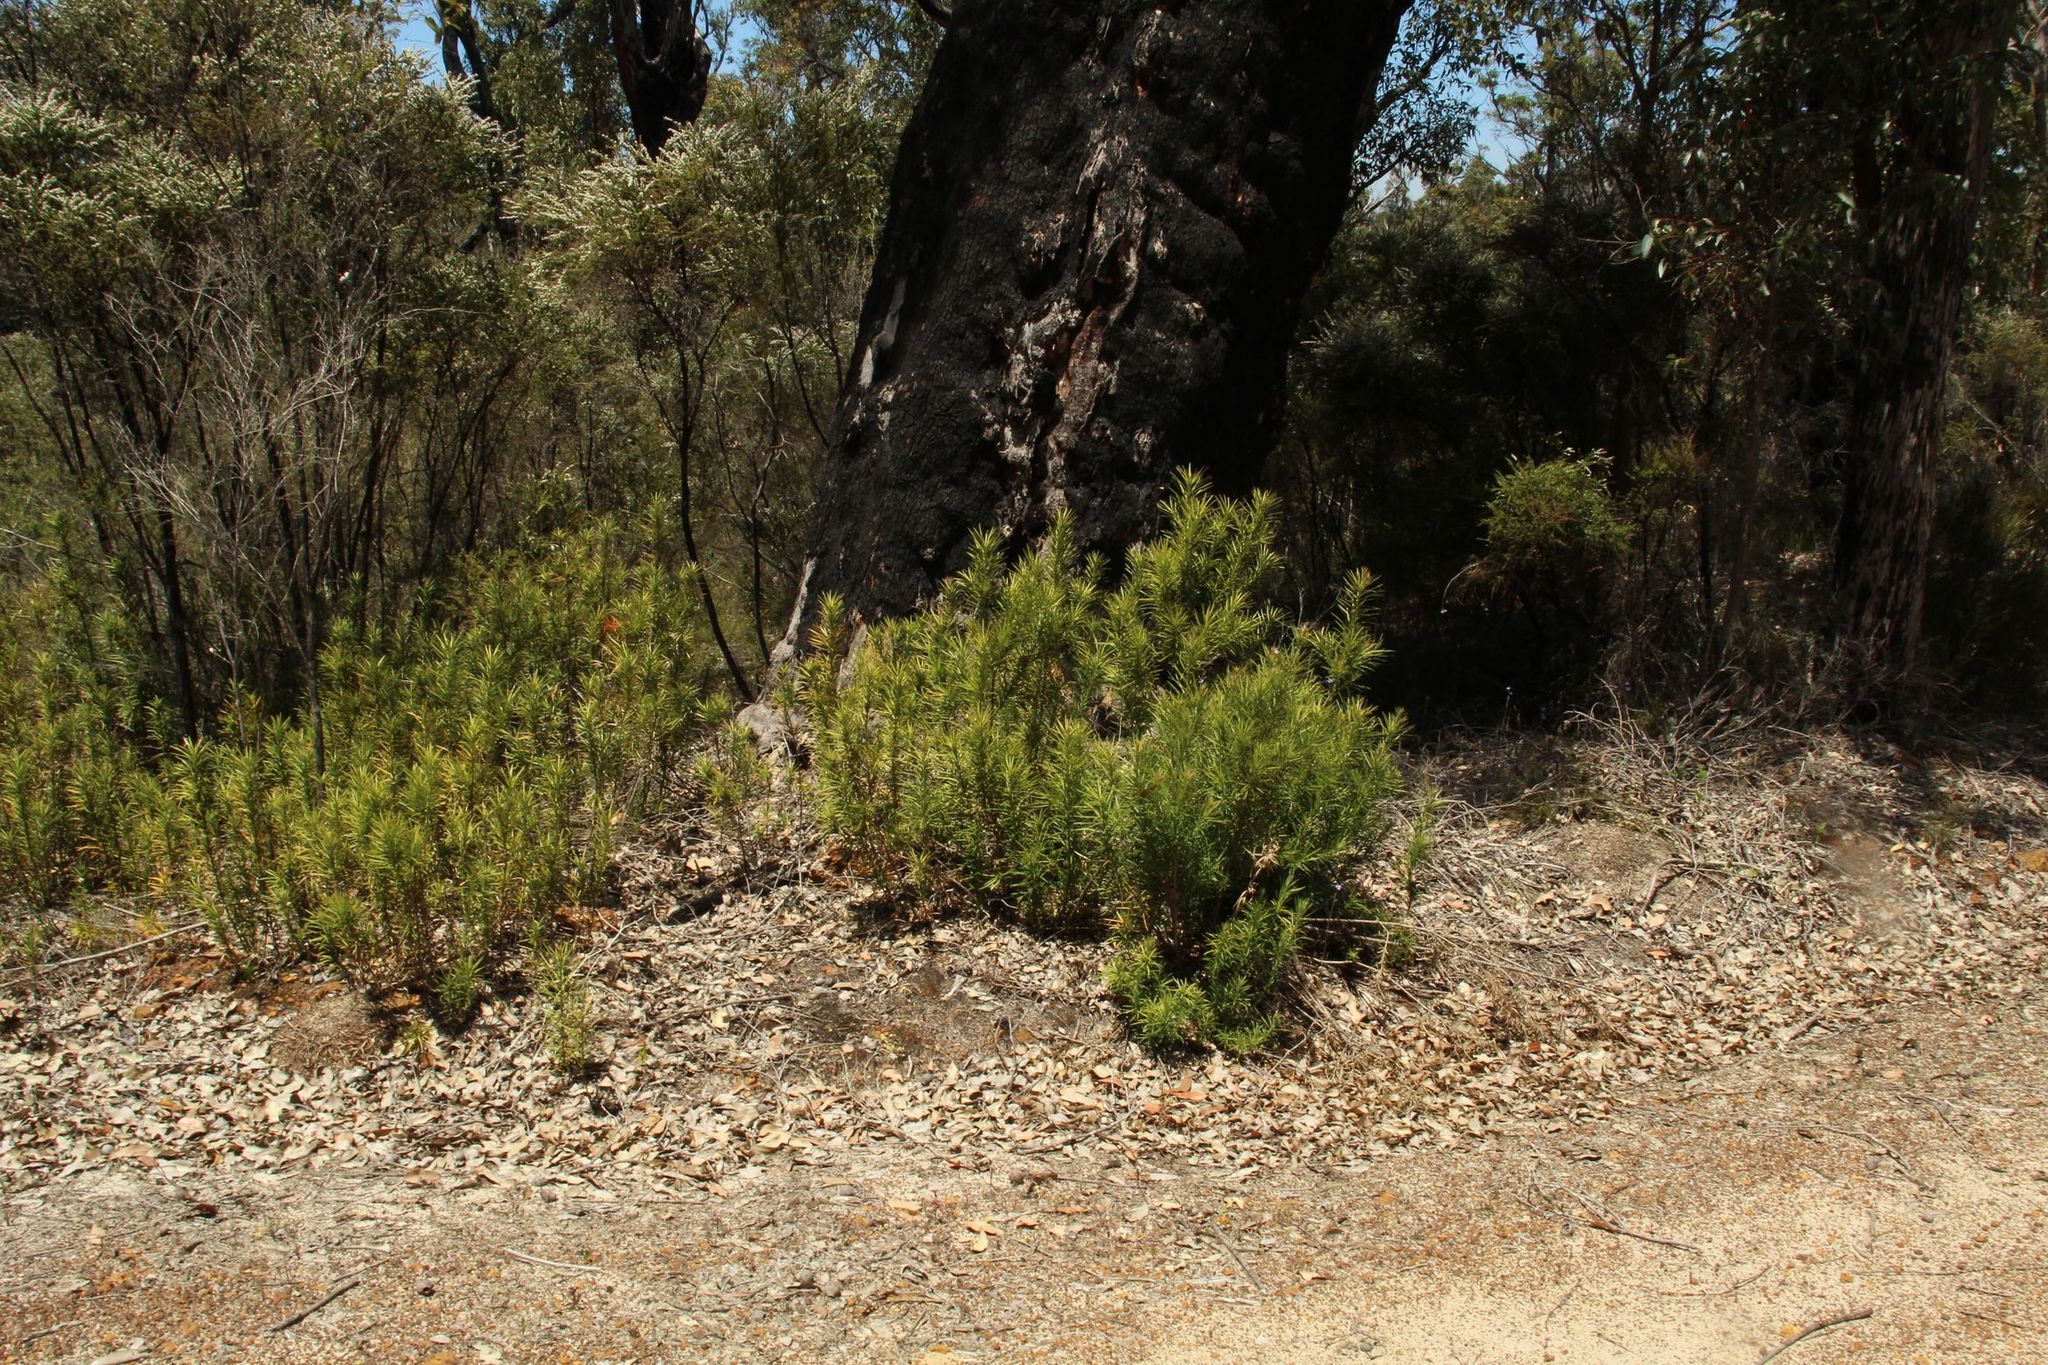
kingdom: Plantae
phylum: Tracheophyta
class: Pinopsida
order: Pinales
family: Podocarpaceae
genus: Podocarpus
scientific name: Podocarpus drouynianus
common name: Emu berry
